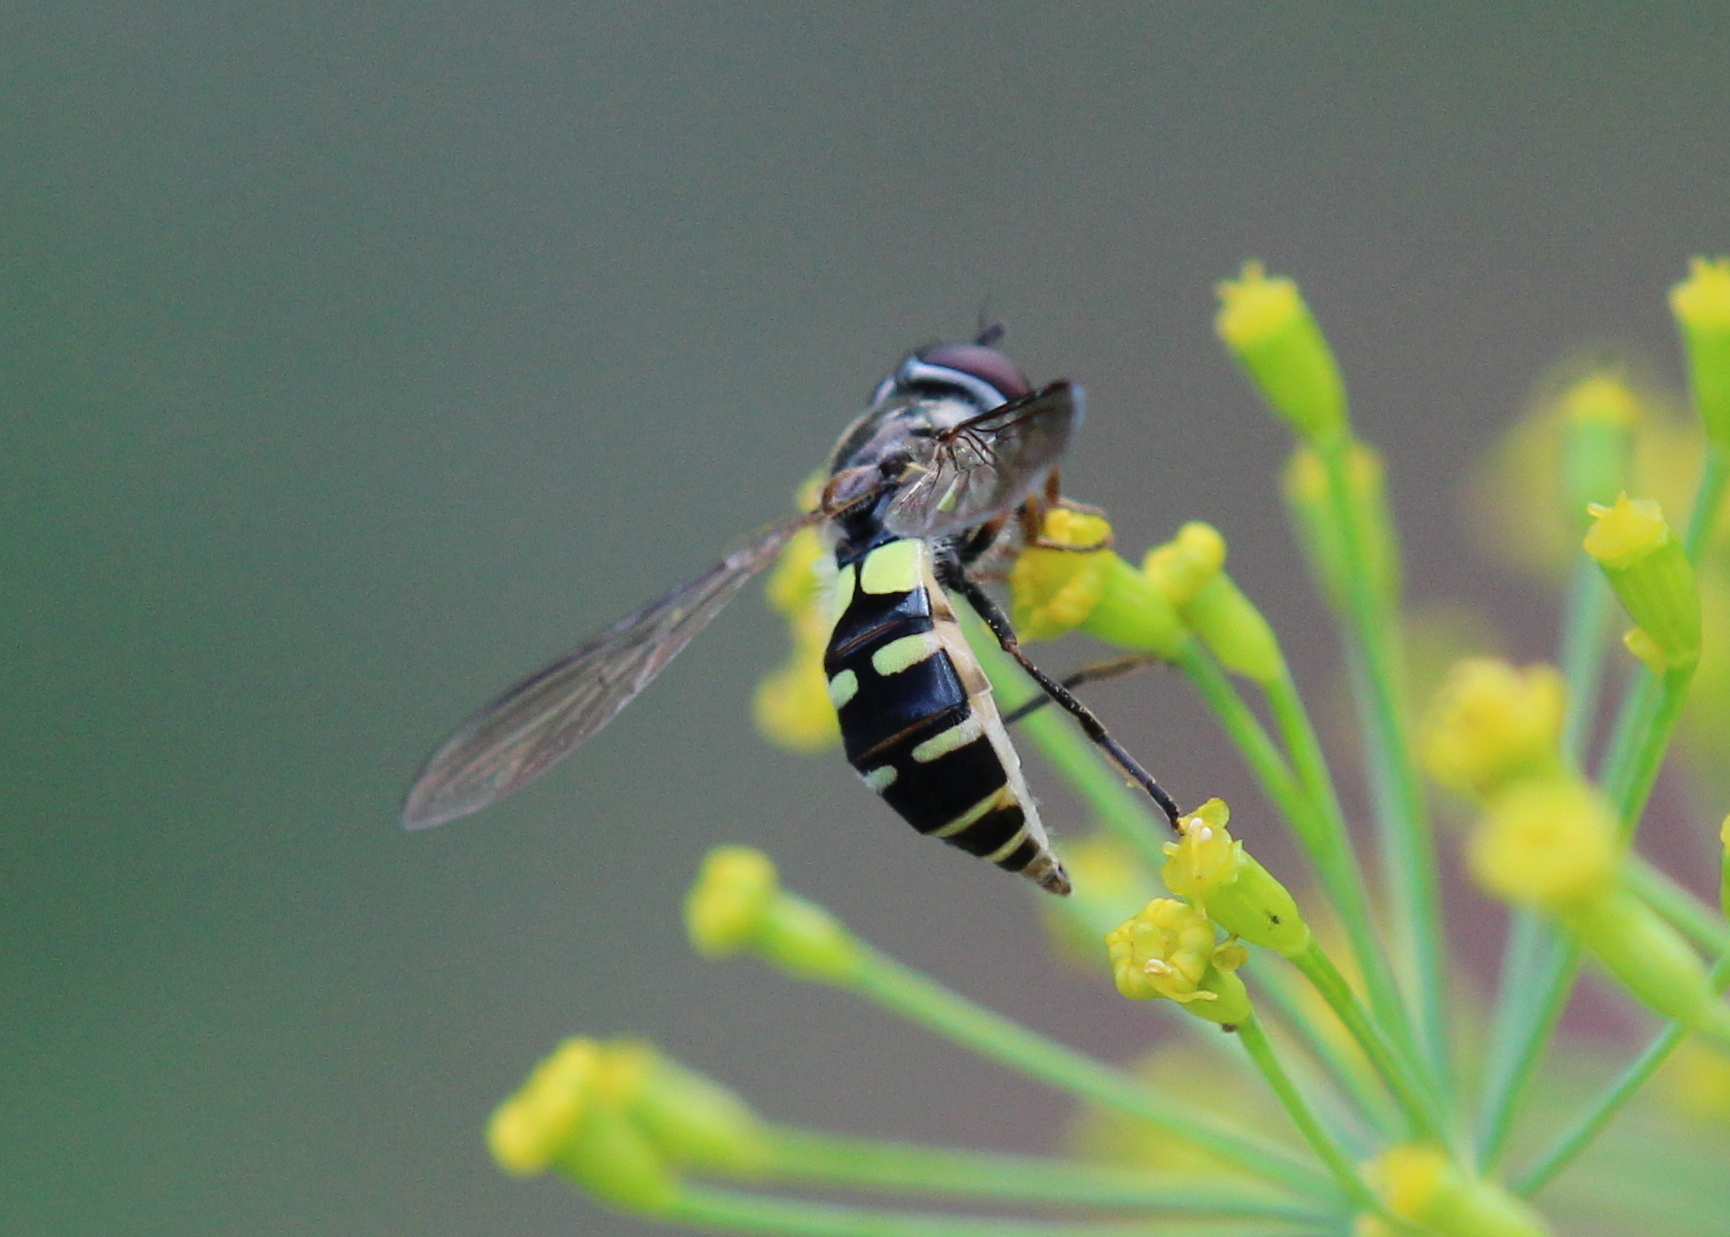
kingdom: Animalia
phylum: Arthropoda
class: Insecta
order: Diptera
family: Syrphidae
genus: Melangyna
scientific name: Melangyna fisherii
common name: Large-spotted halfband
